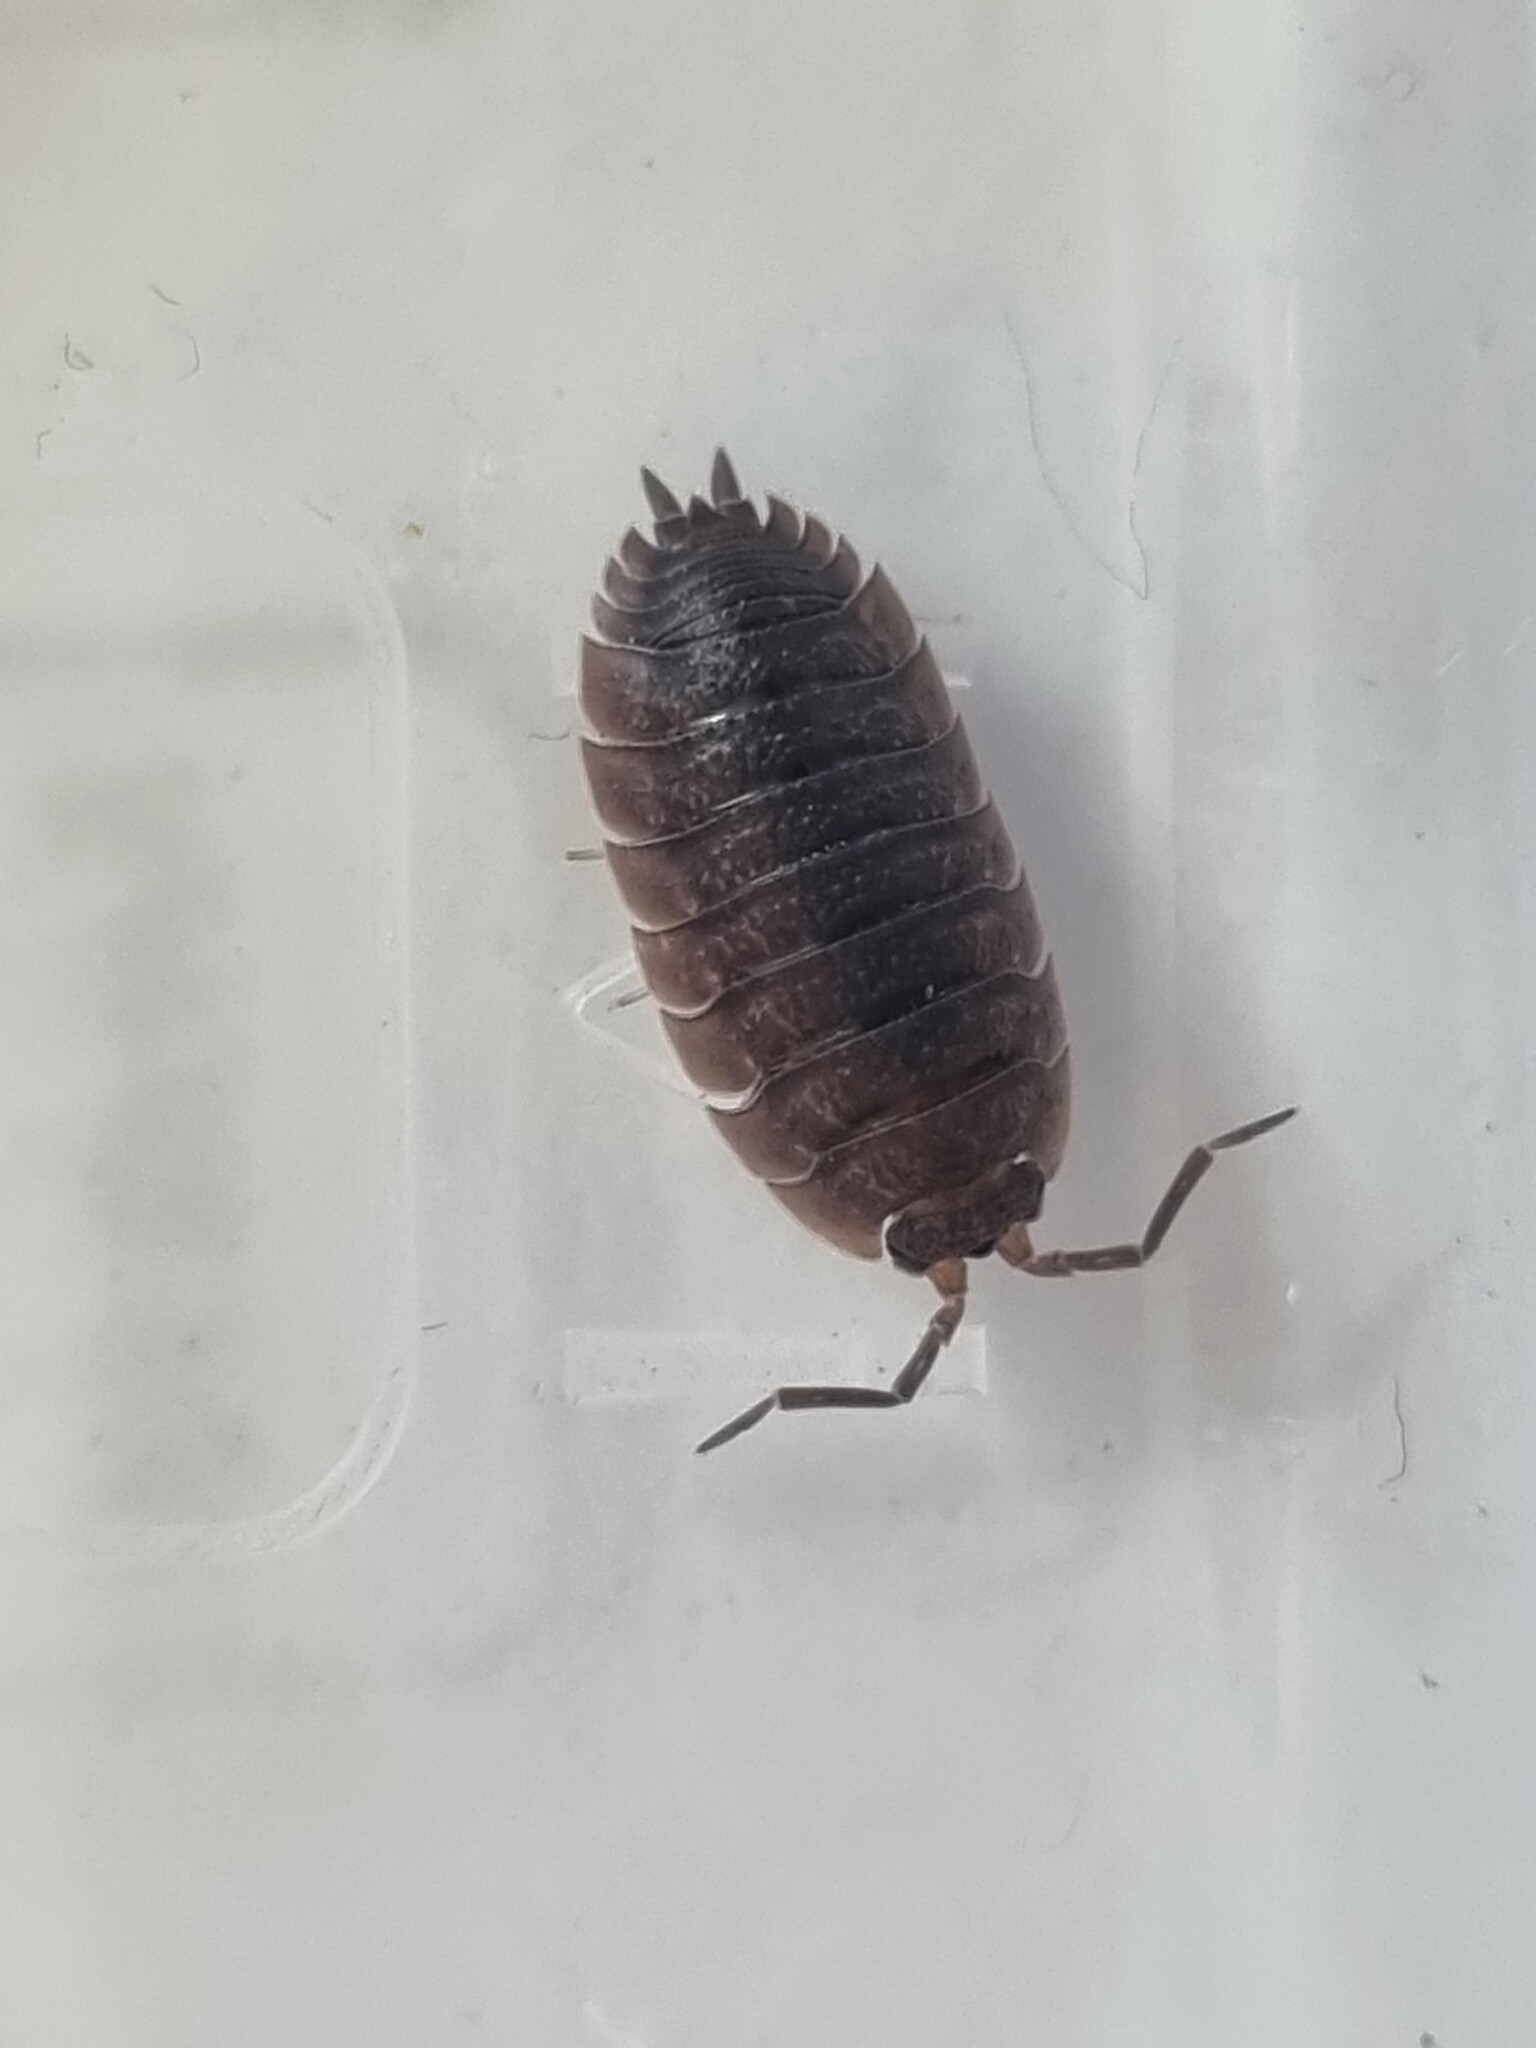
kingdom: Animalia
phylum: Arthropoda
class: Malacostraca
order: Isopoda
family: Porcellionidae
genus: Porcellio
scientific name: Porcellio scaber
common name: Common rough woodlouse
